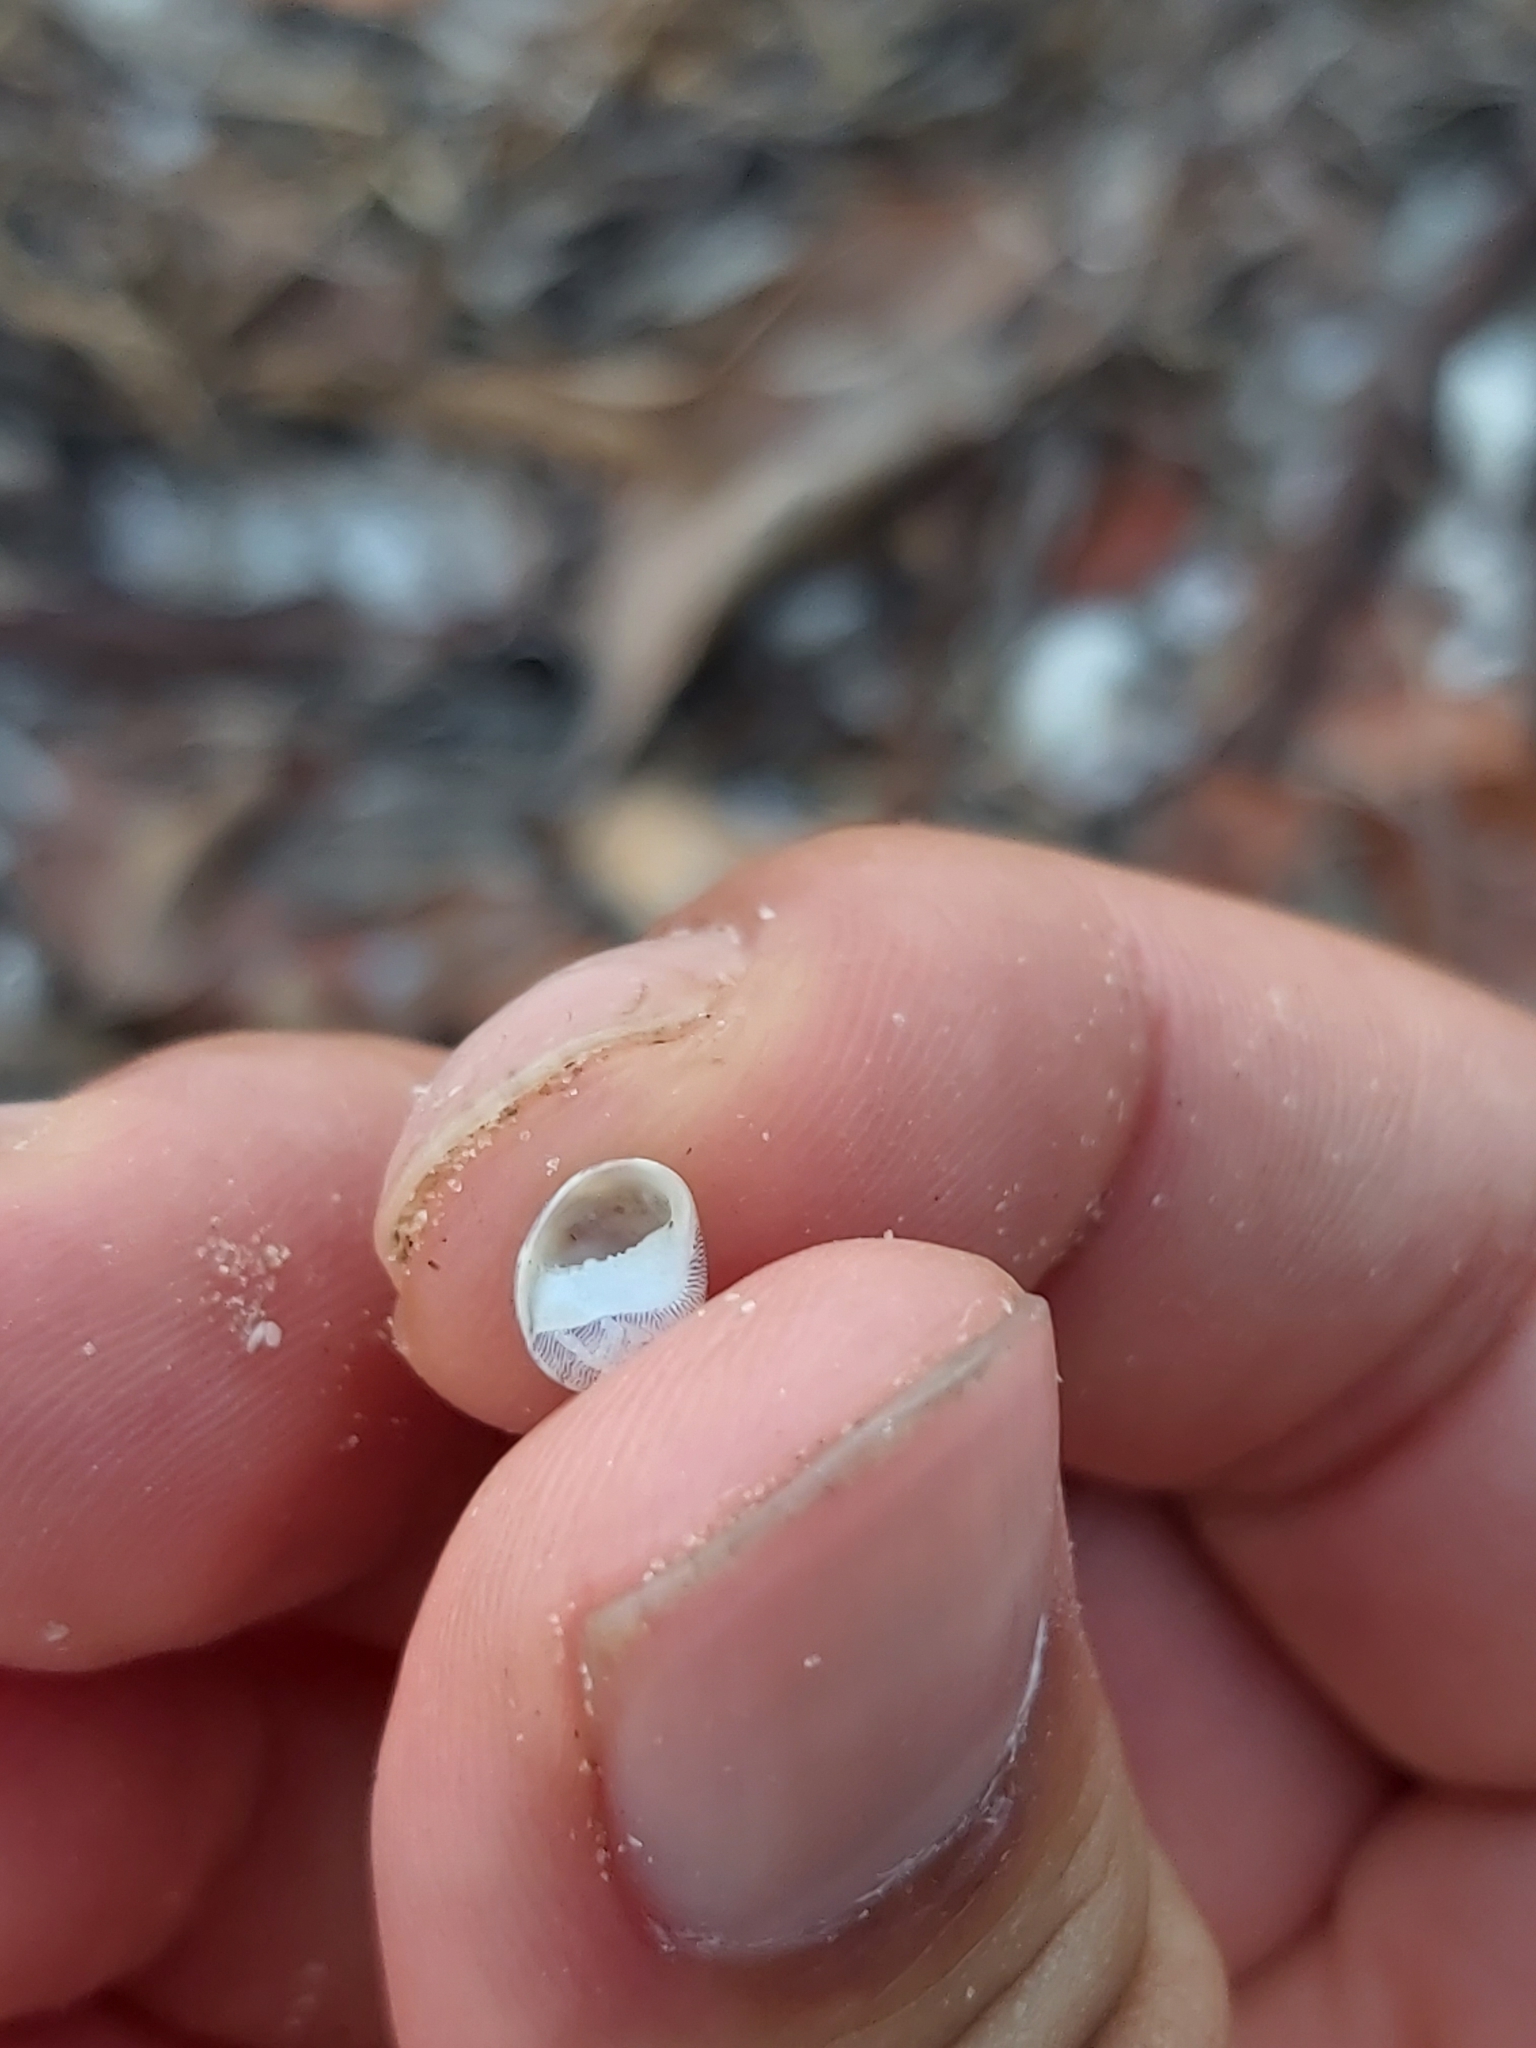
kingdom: Animalia
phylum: Mollusca
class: Gastropoda
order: Cycloneritida
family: Neritidae
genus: Clithon
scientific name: Clithon oualaniense
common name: Dubious nerite
